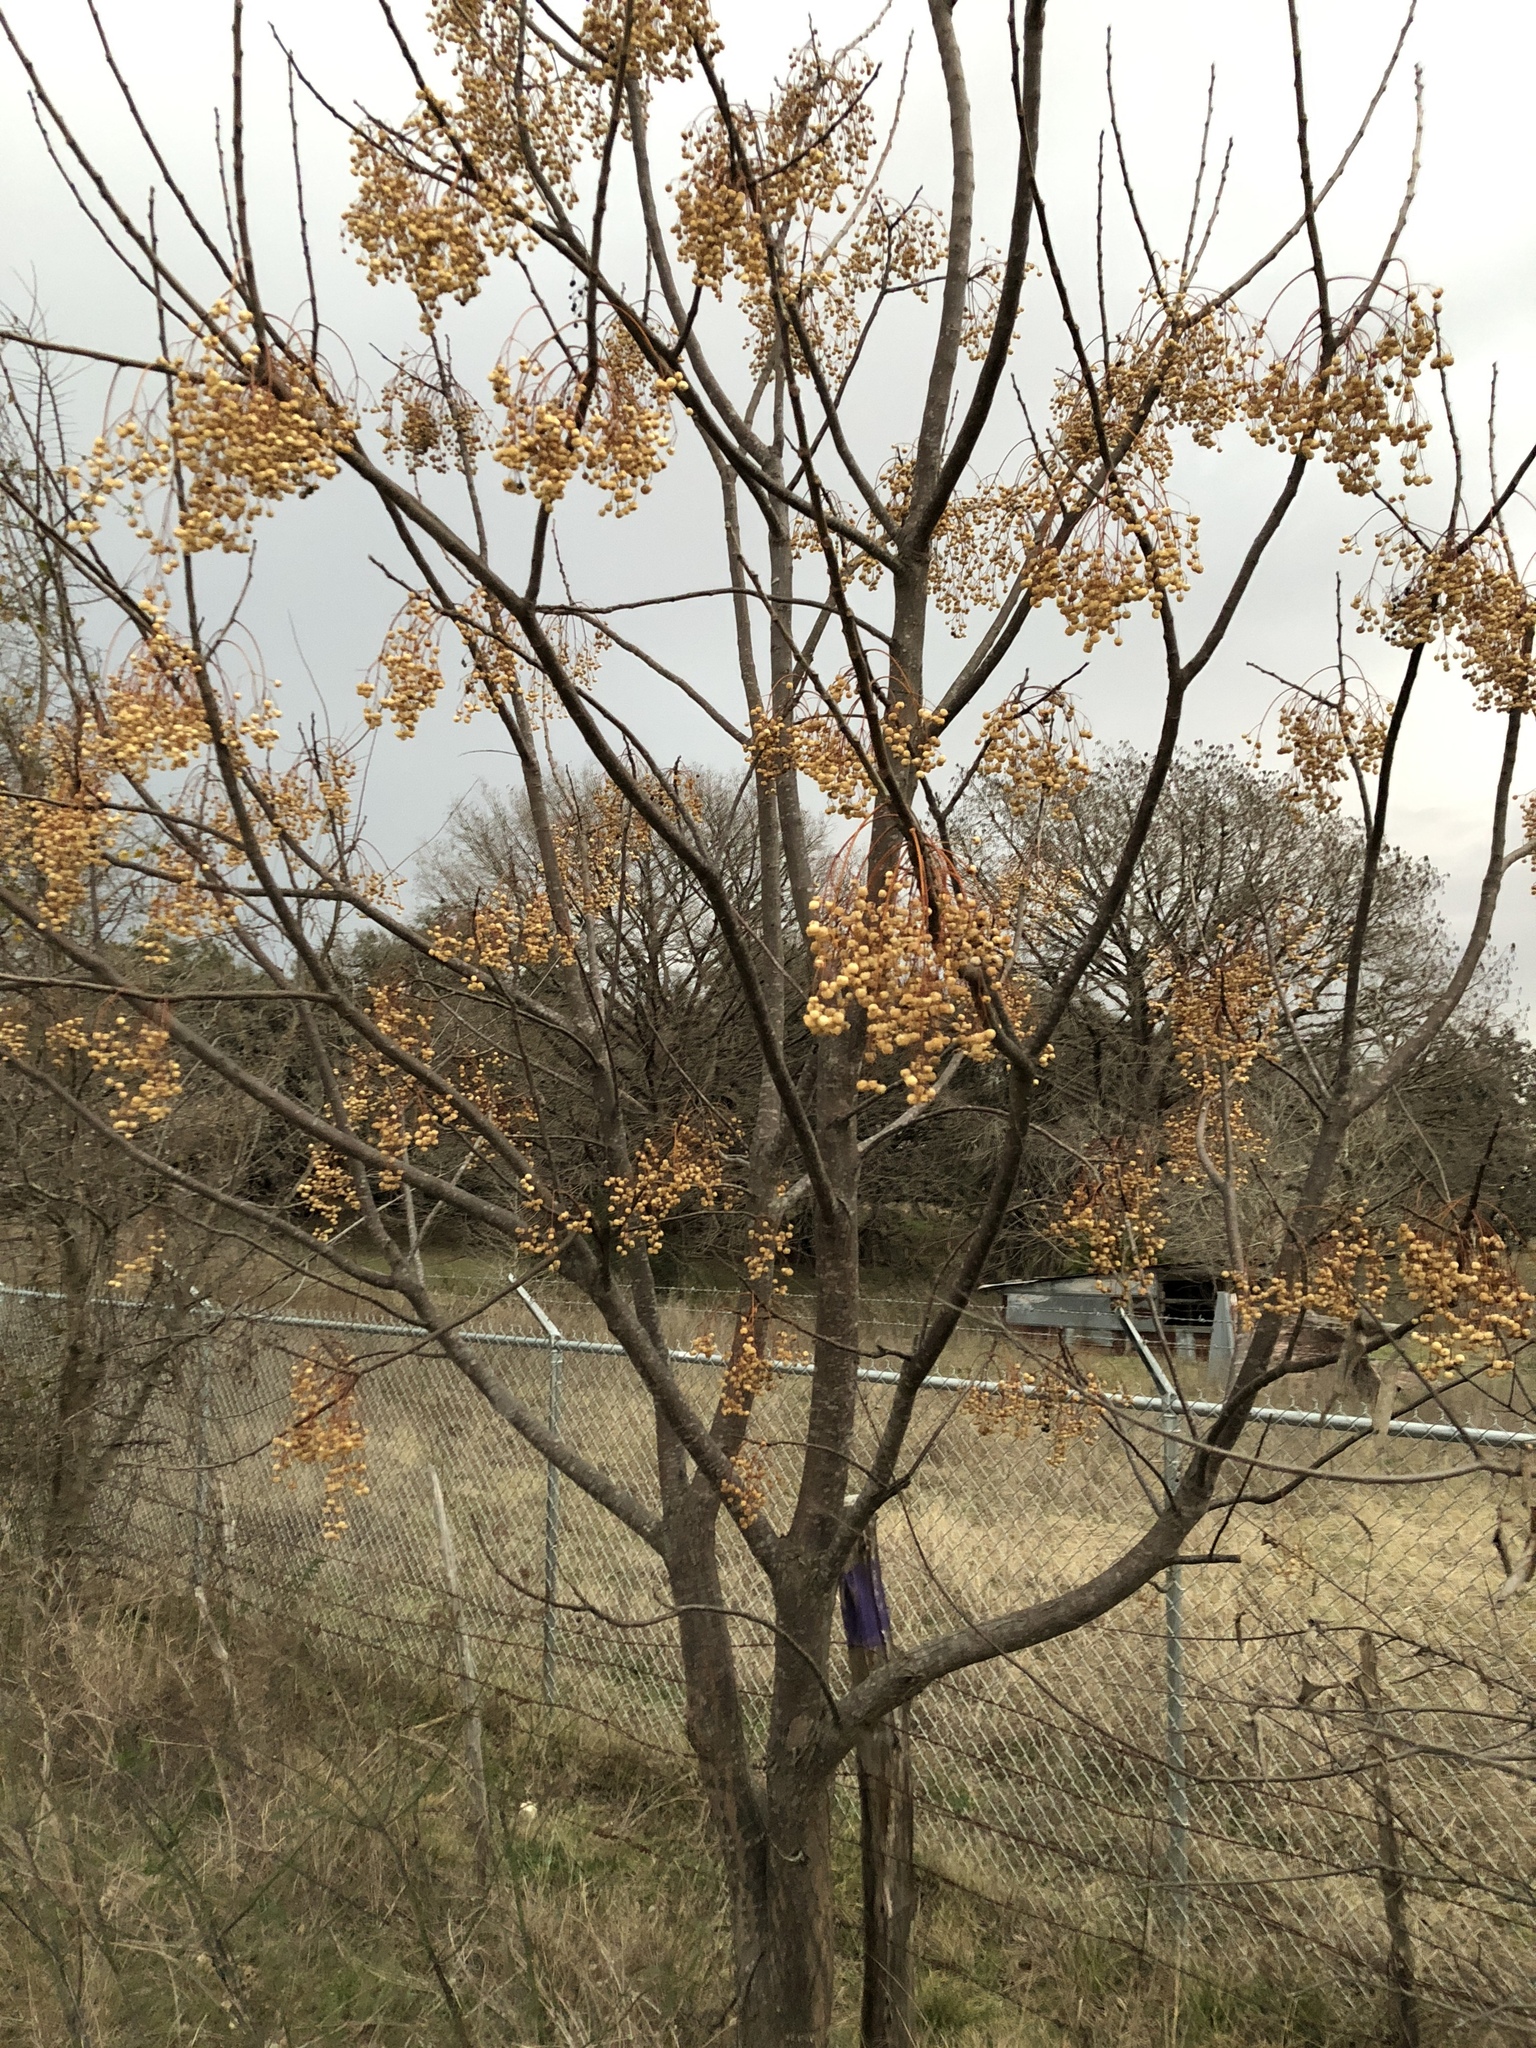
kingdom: Plantae
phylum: Tracheophyta
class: Magnoliopsida
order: Sapindales
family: Meliaceae
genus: Melia
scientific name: Melia azedarach
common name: Chinaberrytree
